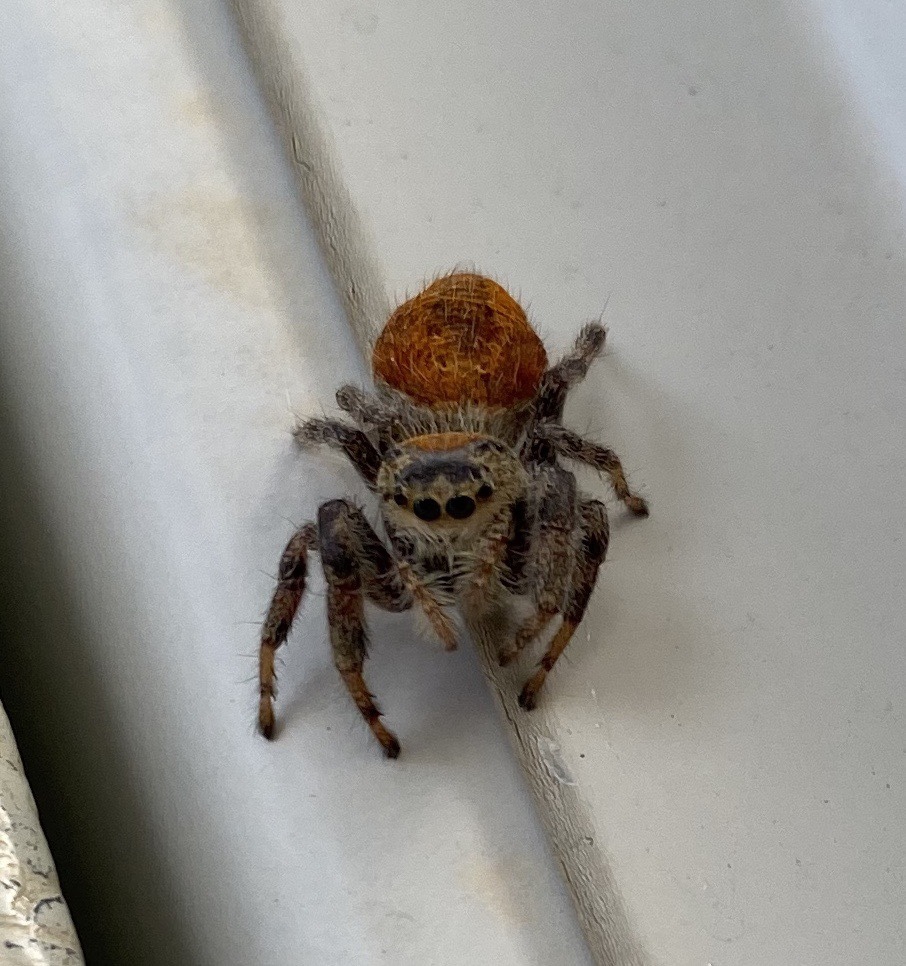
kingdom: Animalia
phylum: Arthropoda
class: Arachnida
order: Araneae
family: Salticidae
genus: Phidippus
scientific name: Phidippus clarus
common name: Brilliant jumping spider
